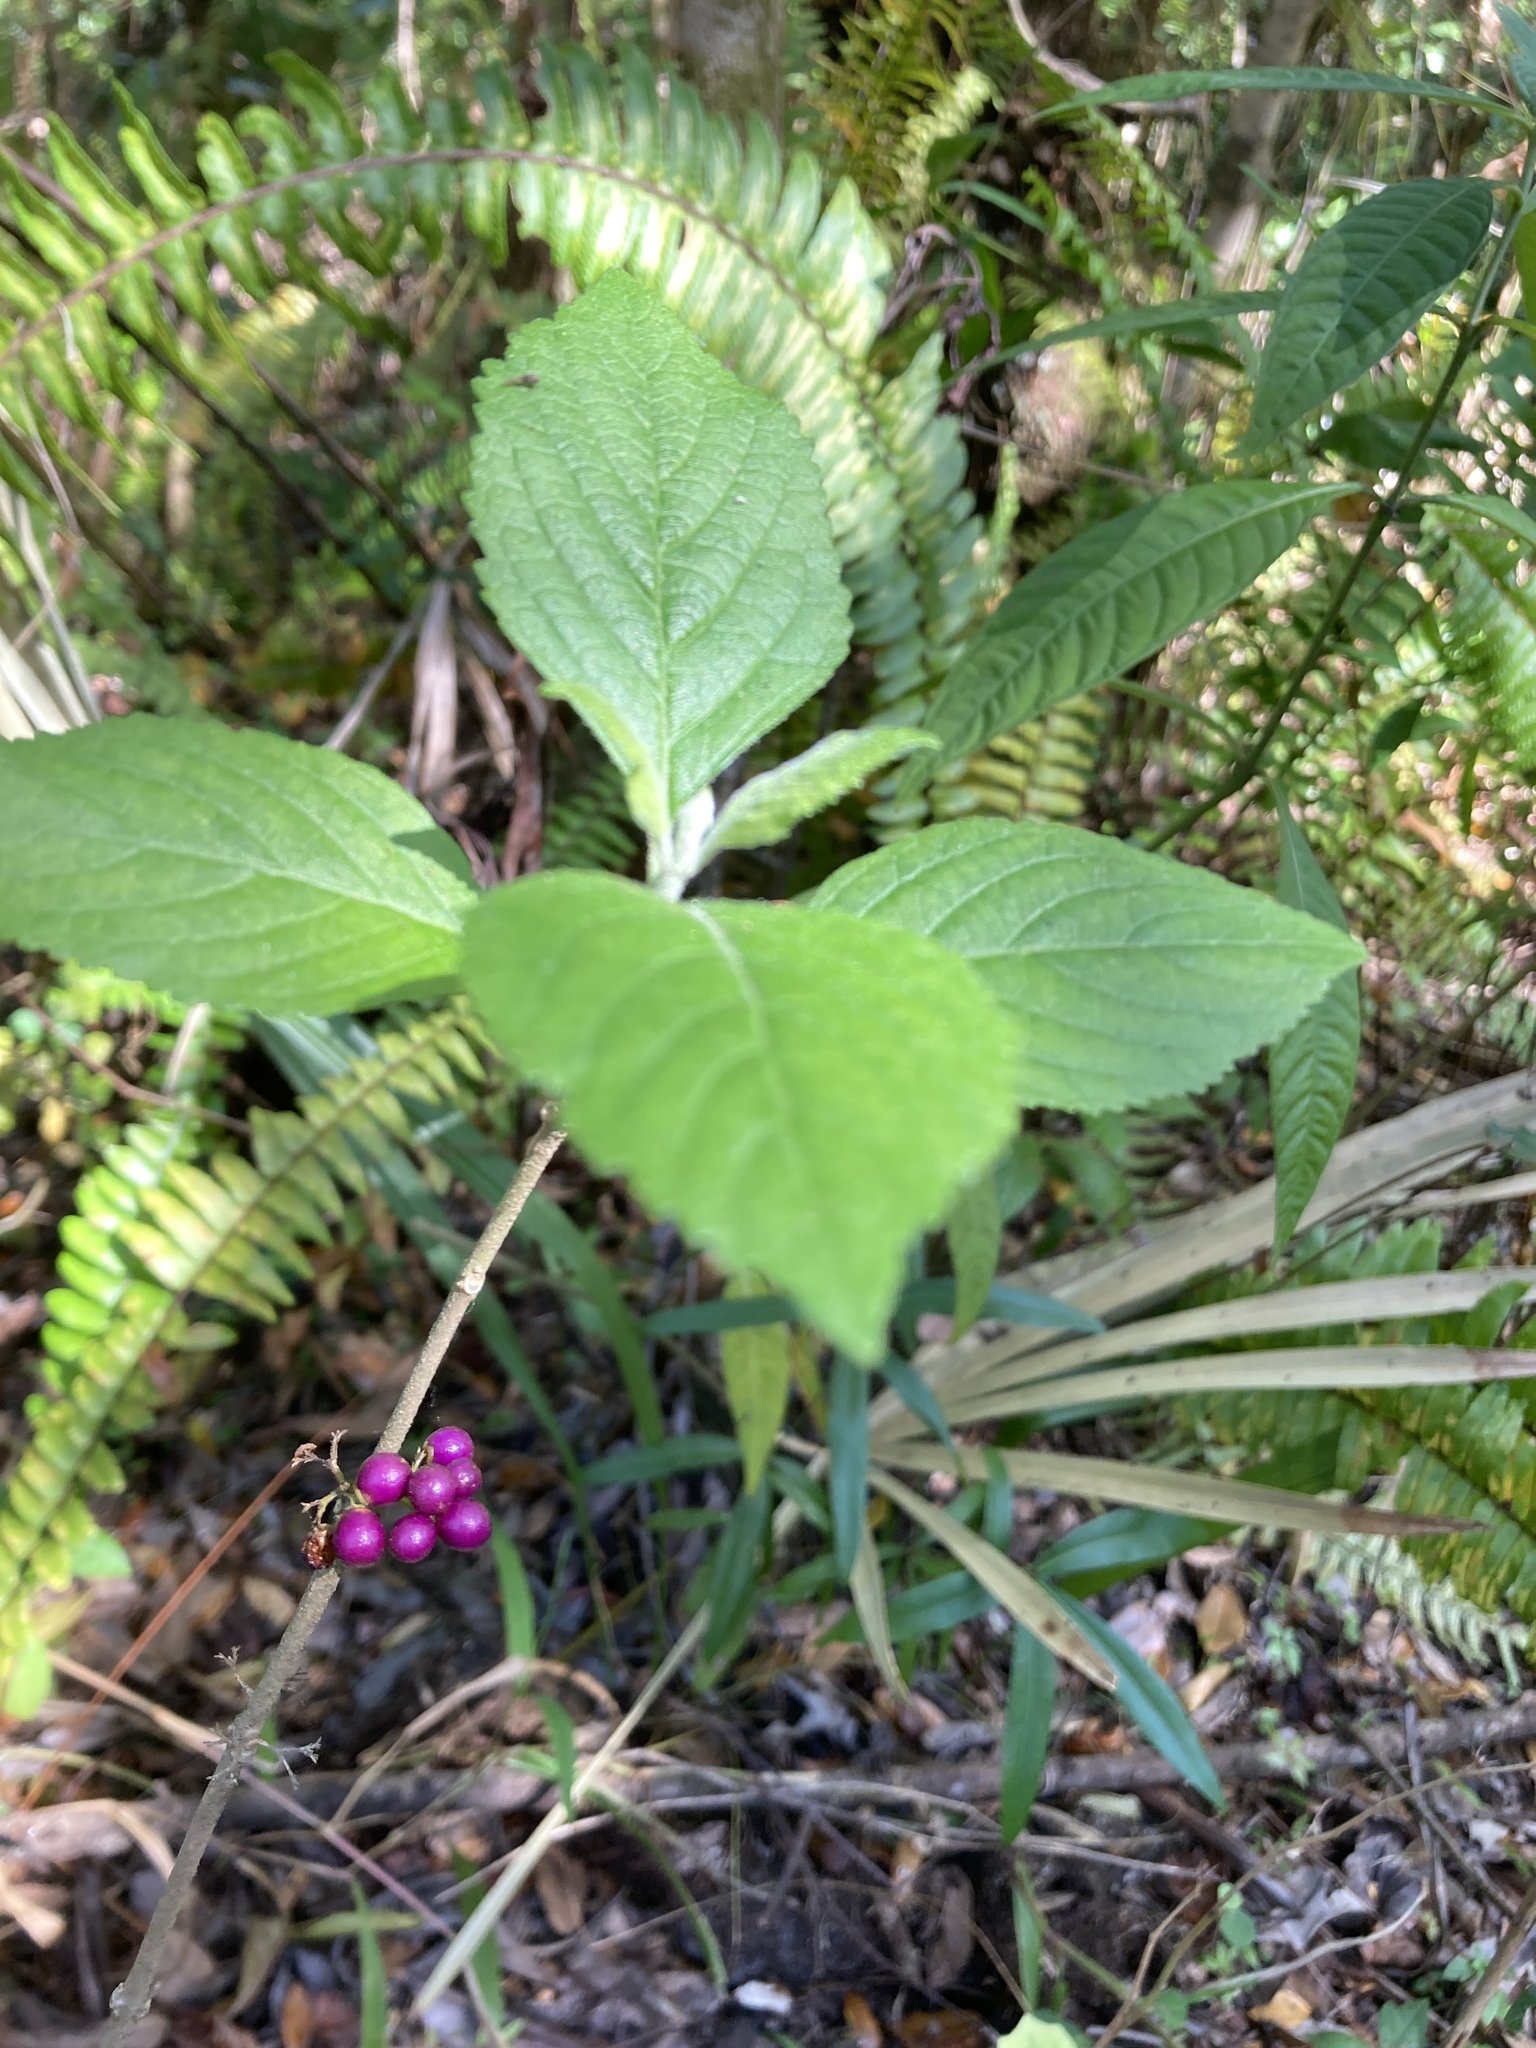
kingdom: Plantae
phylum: Tracheophyta
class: Magnoliopsida
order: Lamiales
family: Lamiaceae
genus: Callicarpa
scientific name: Callicarpa americana
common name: American beautyberry
